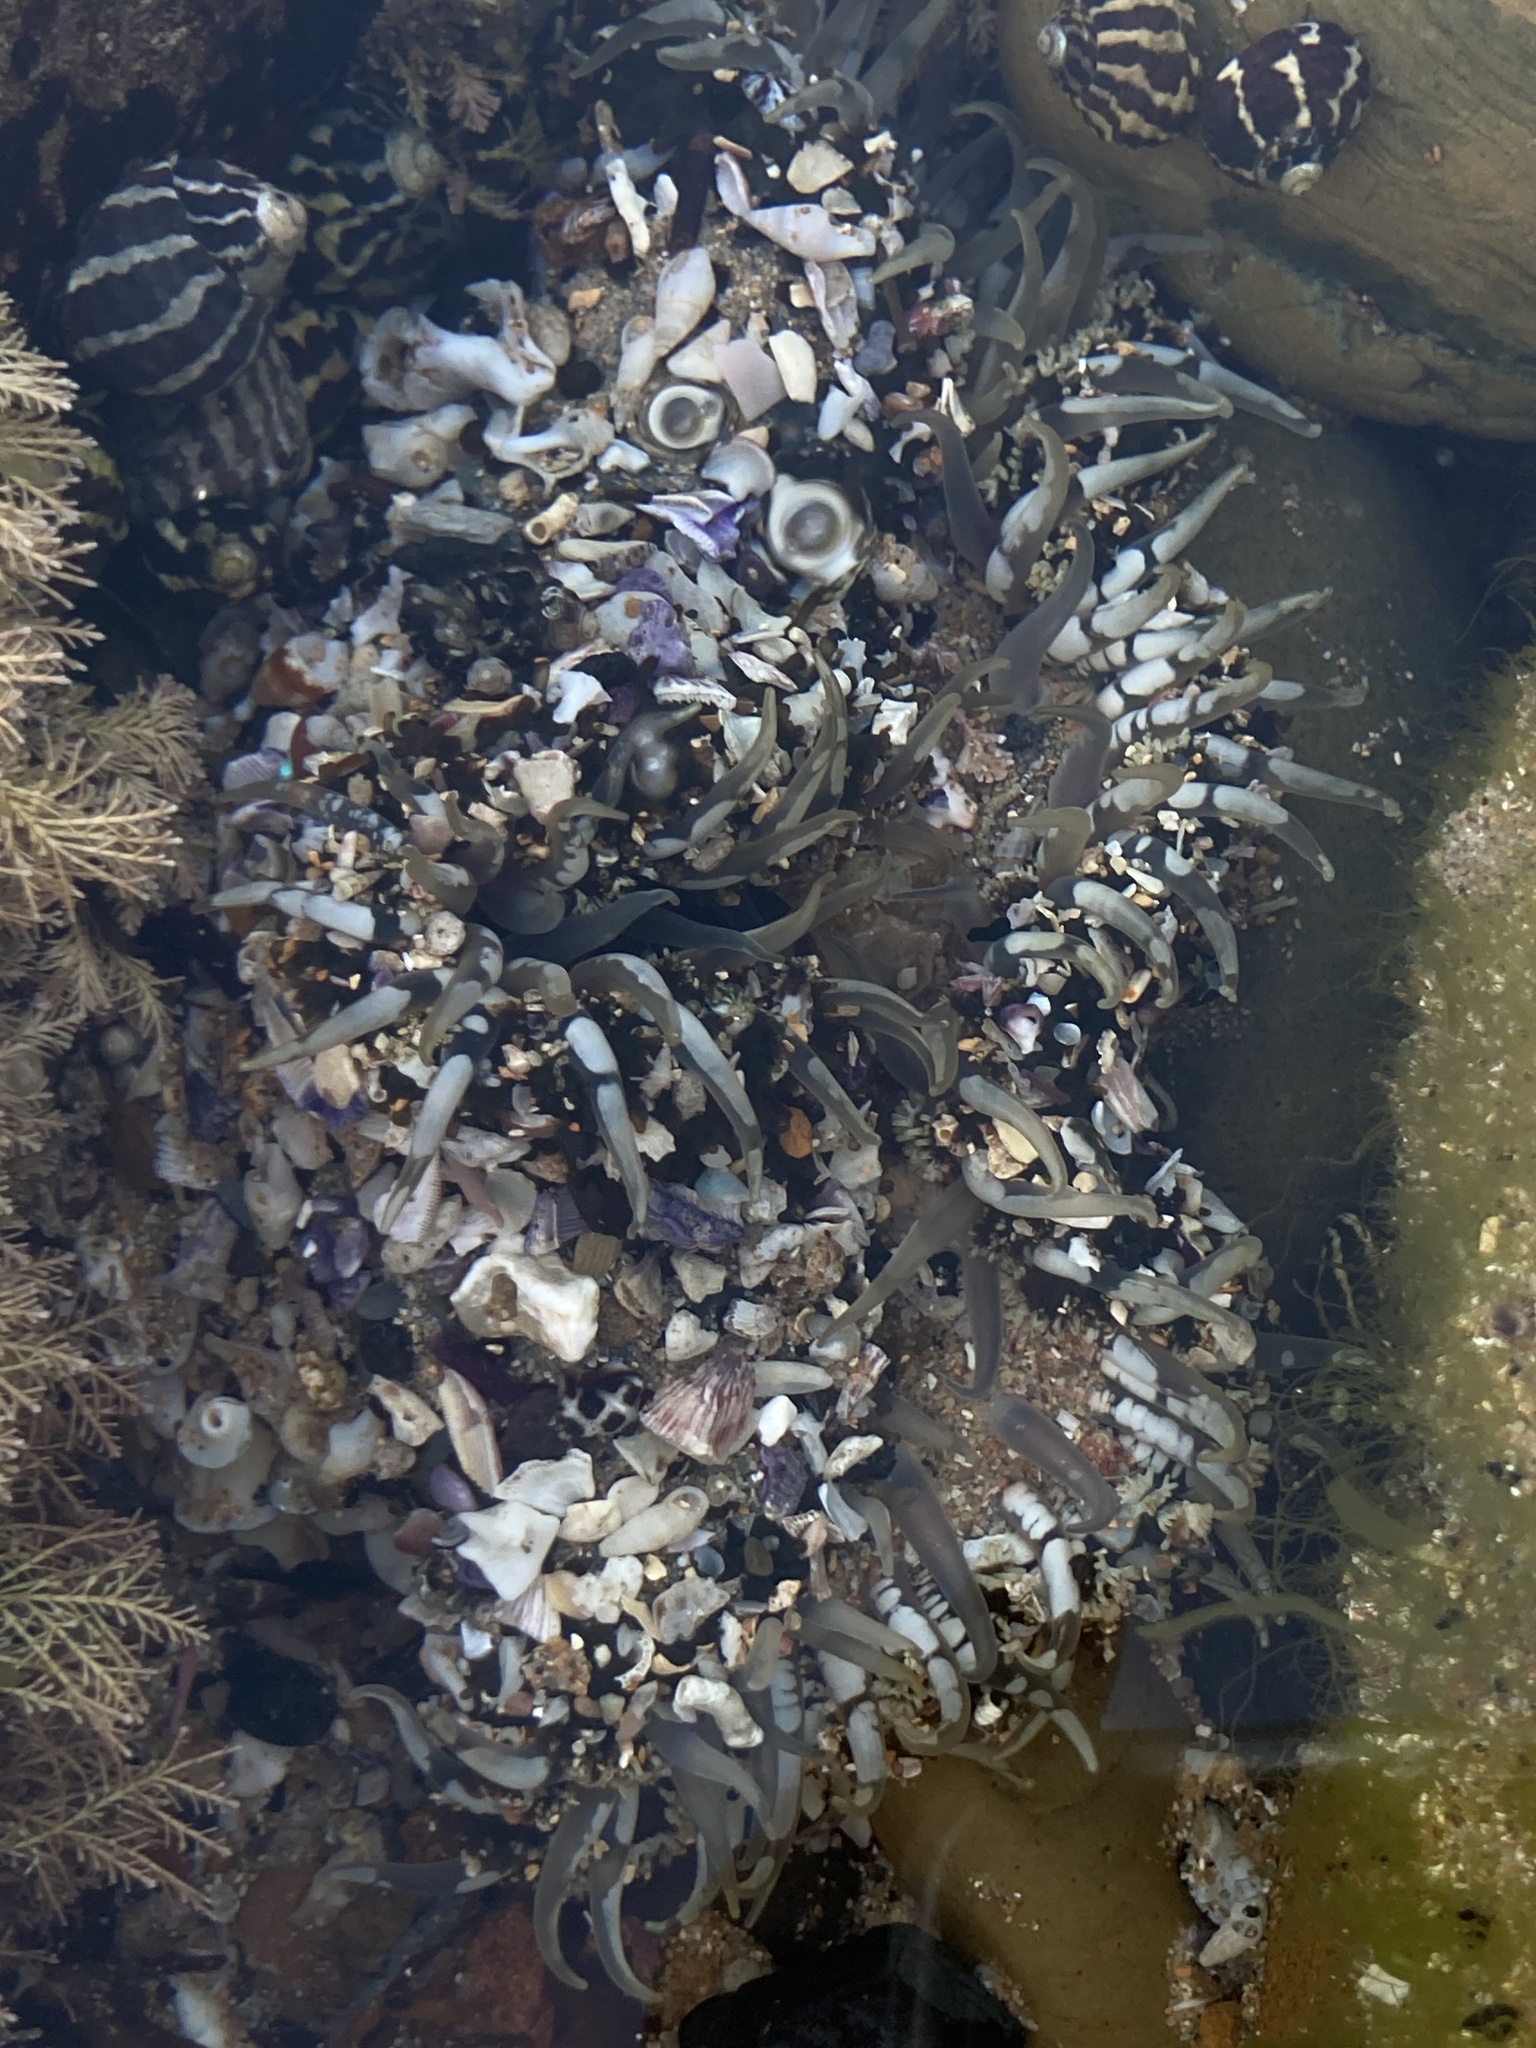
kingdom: Animalia
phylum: Cnidaria
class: Anthozoa
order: Actiniaria
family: Actiniidae
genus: Oulactis
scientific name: Oulactis muscosa
